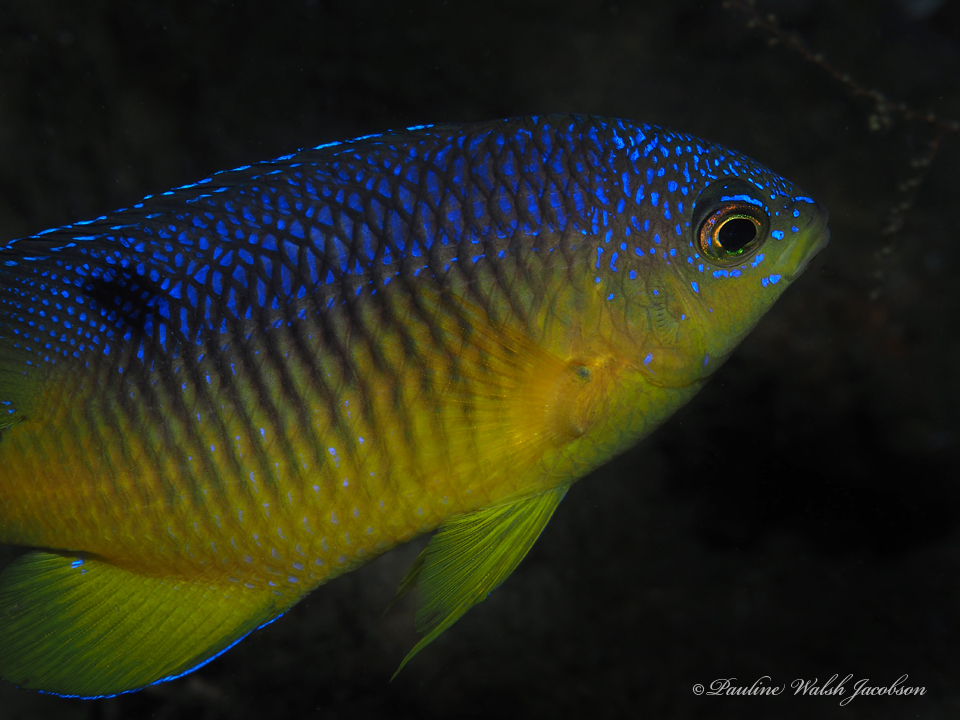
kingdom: Animalia
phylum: Chordata
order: Perciformes
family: Pomacentridae
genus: Stegastes
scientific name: Stegastes xanthurus
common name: Cocoa damselfish
